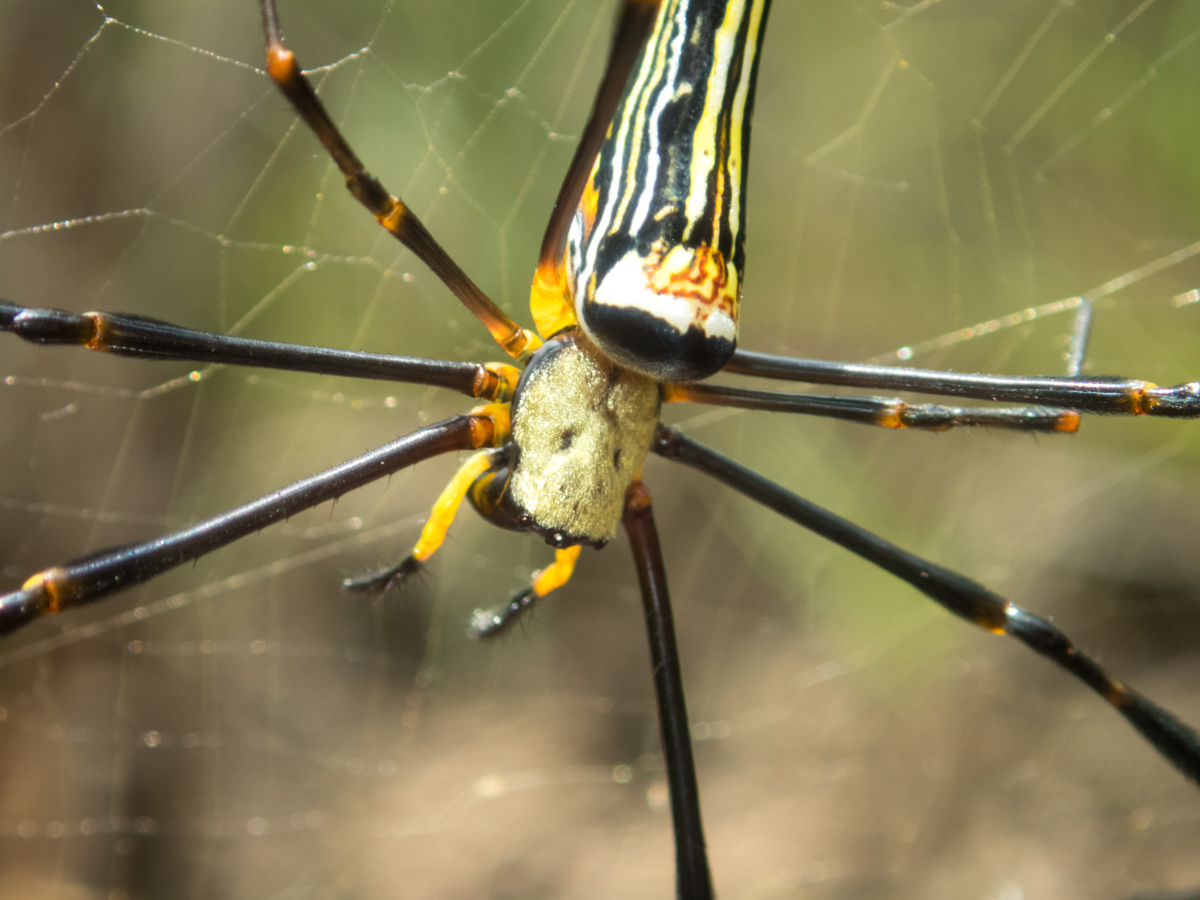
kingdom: Animalia
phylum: Arthropoda
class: Arachnida
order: Araneae
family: Araneidae
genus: Nephila
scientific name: Nephila pilipes
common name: Giant golden orb weaver
